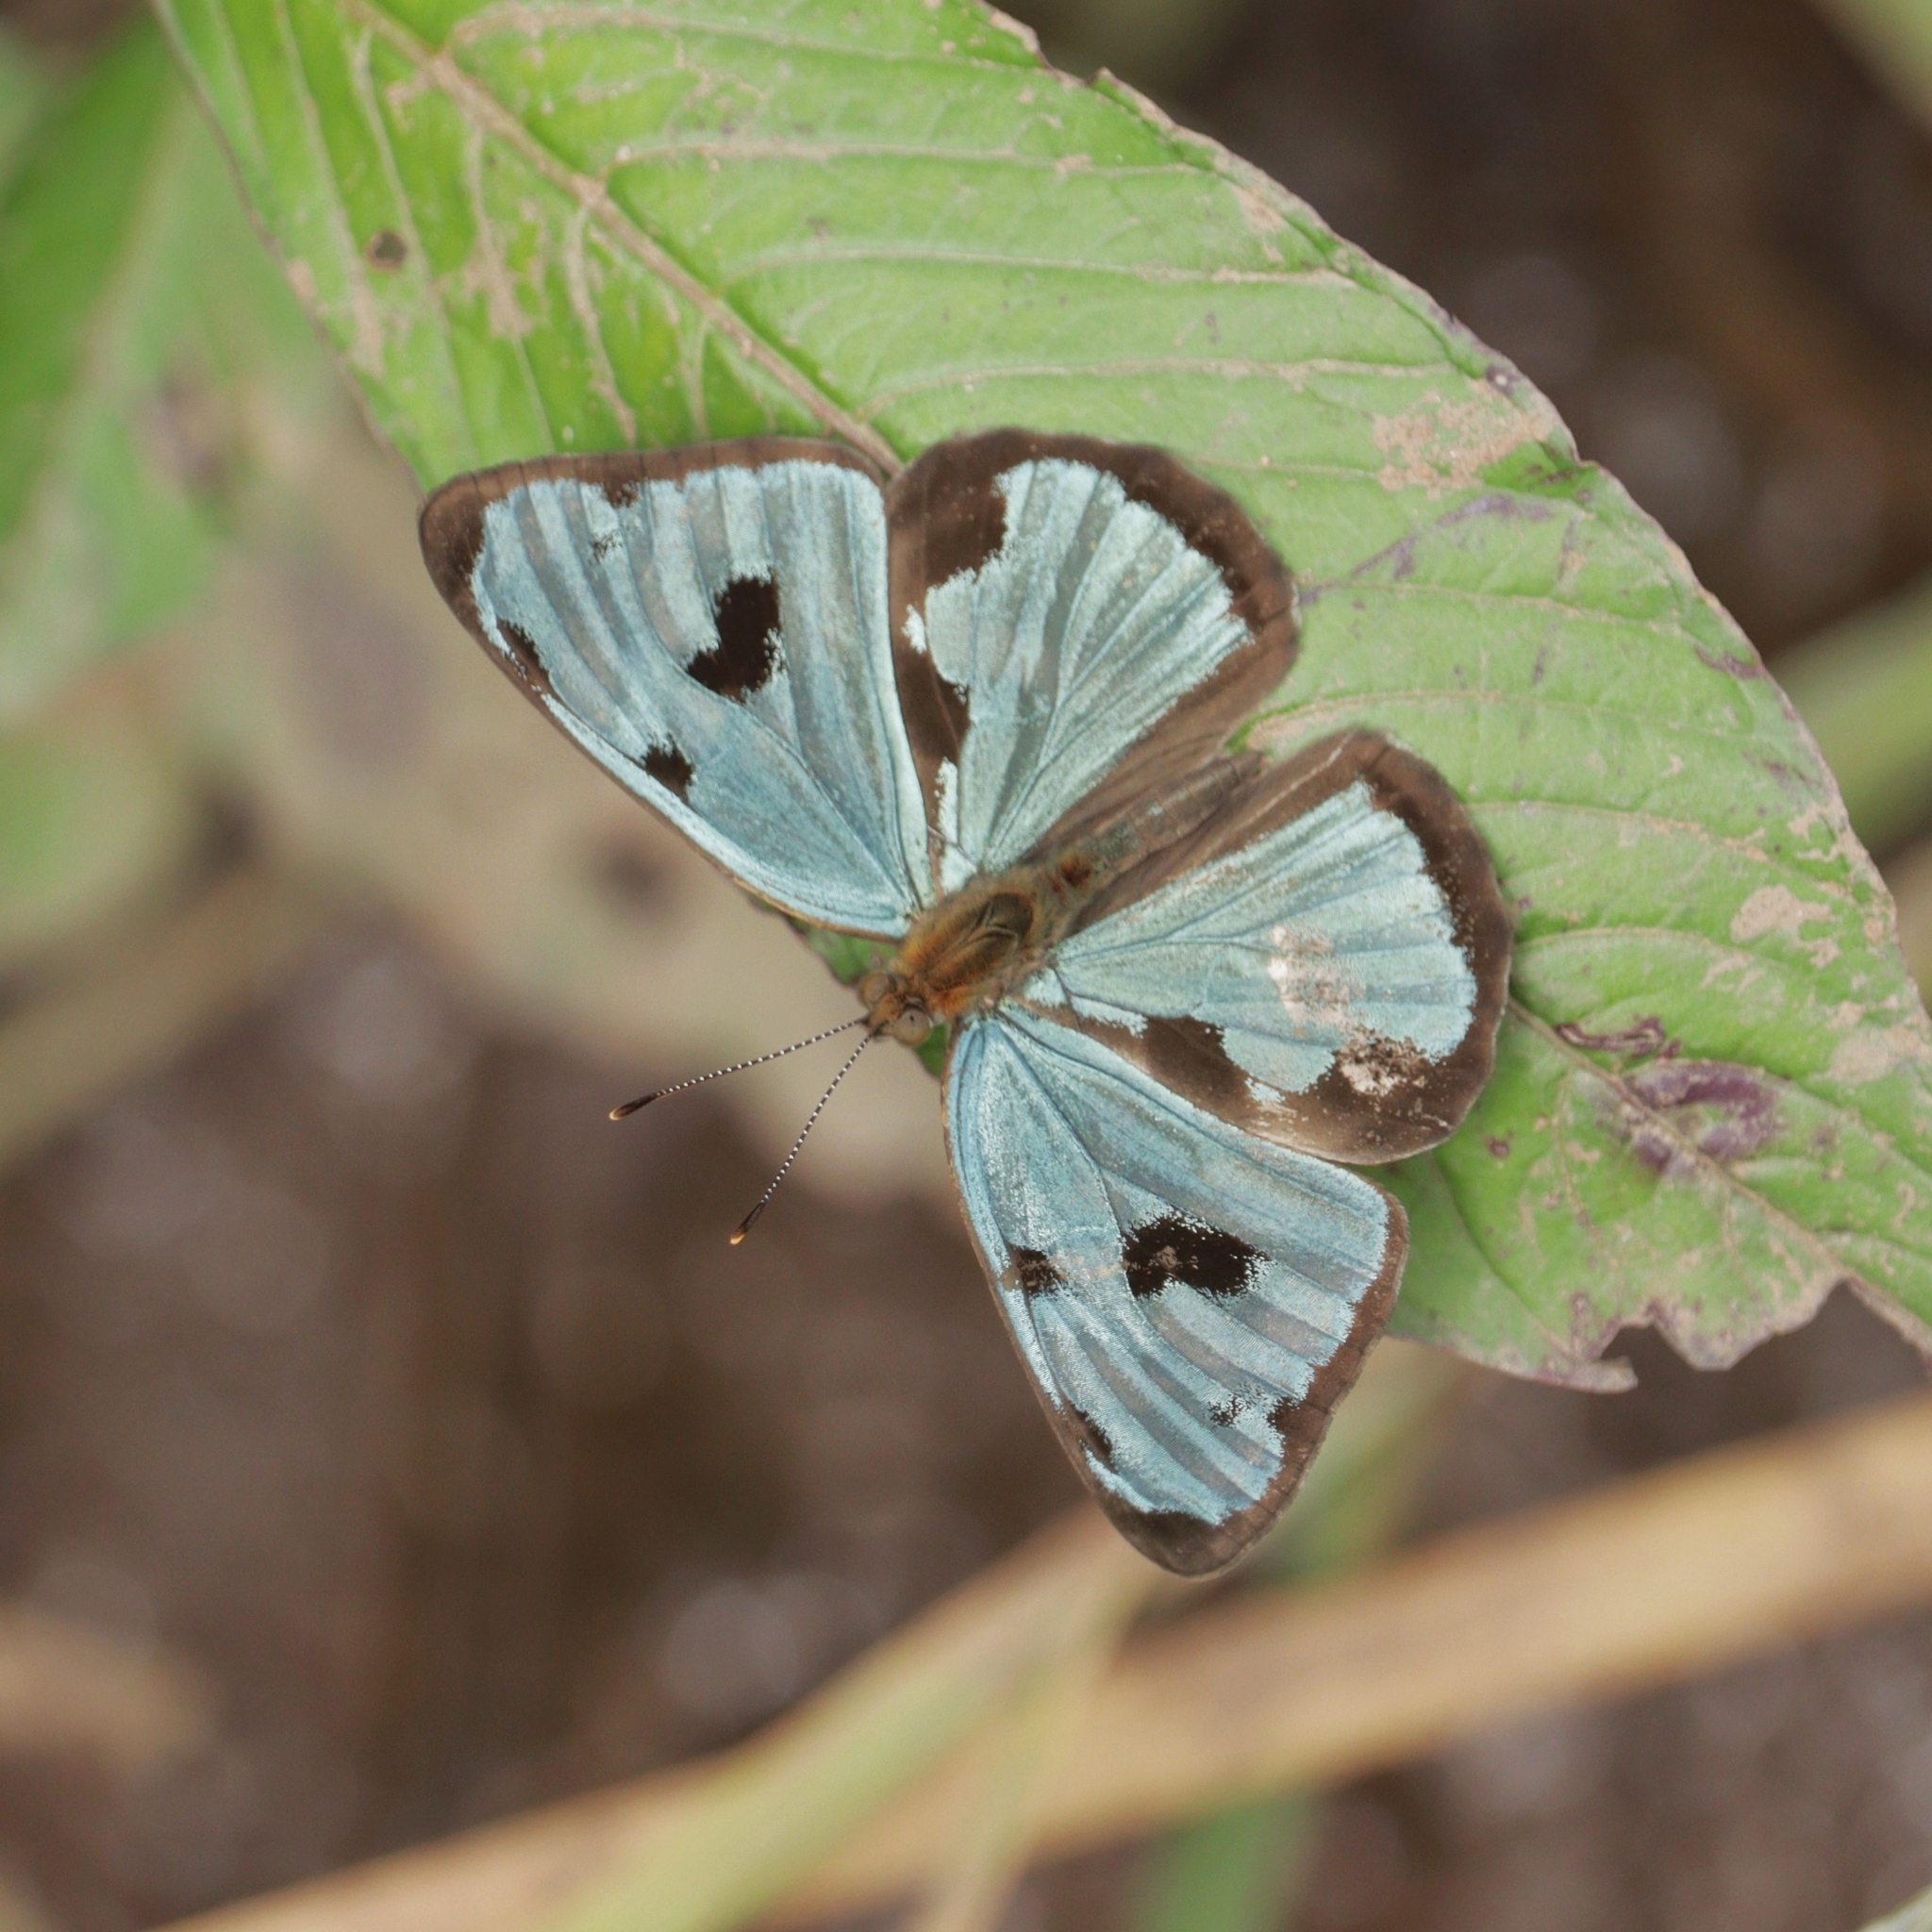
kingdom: Animalia
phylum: Arthropoda
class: Insecta
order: Lepidoptera
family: Nymphalidae
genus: Dynamine
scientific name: Dynamine mylitta
